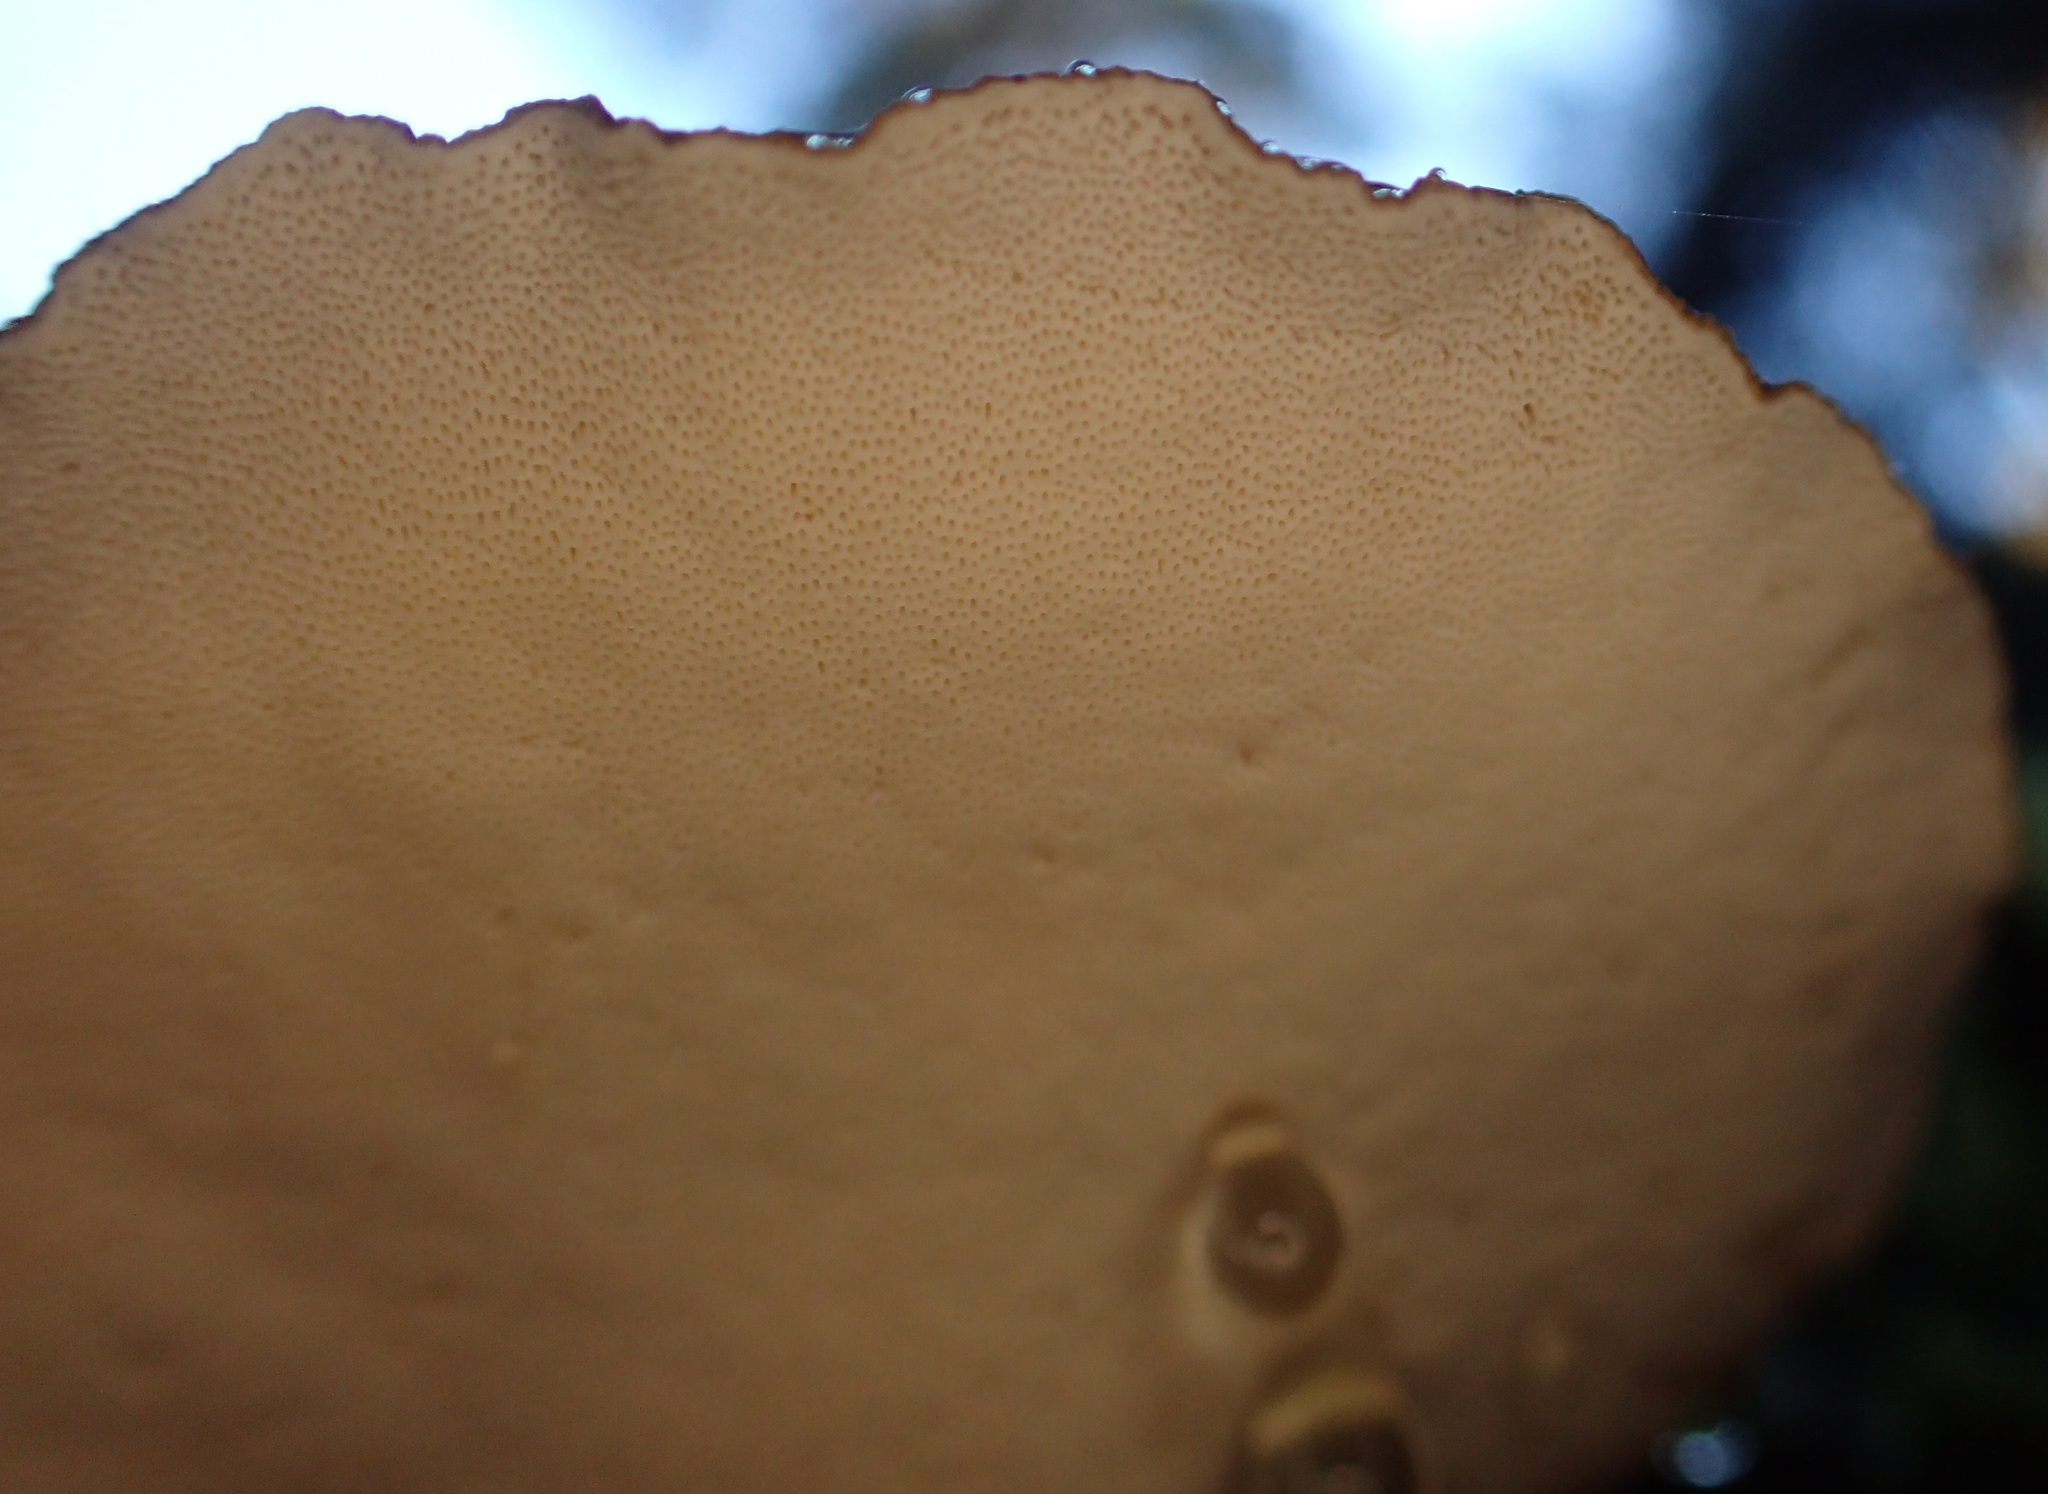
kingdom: Fungi
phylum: Basidiomycota
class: Agaricomycetes
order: Polyporales
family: Polyporaceae
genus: Picipes
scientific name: Picipes melanopus
